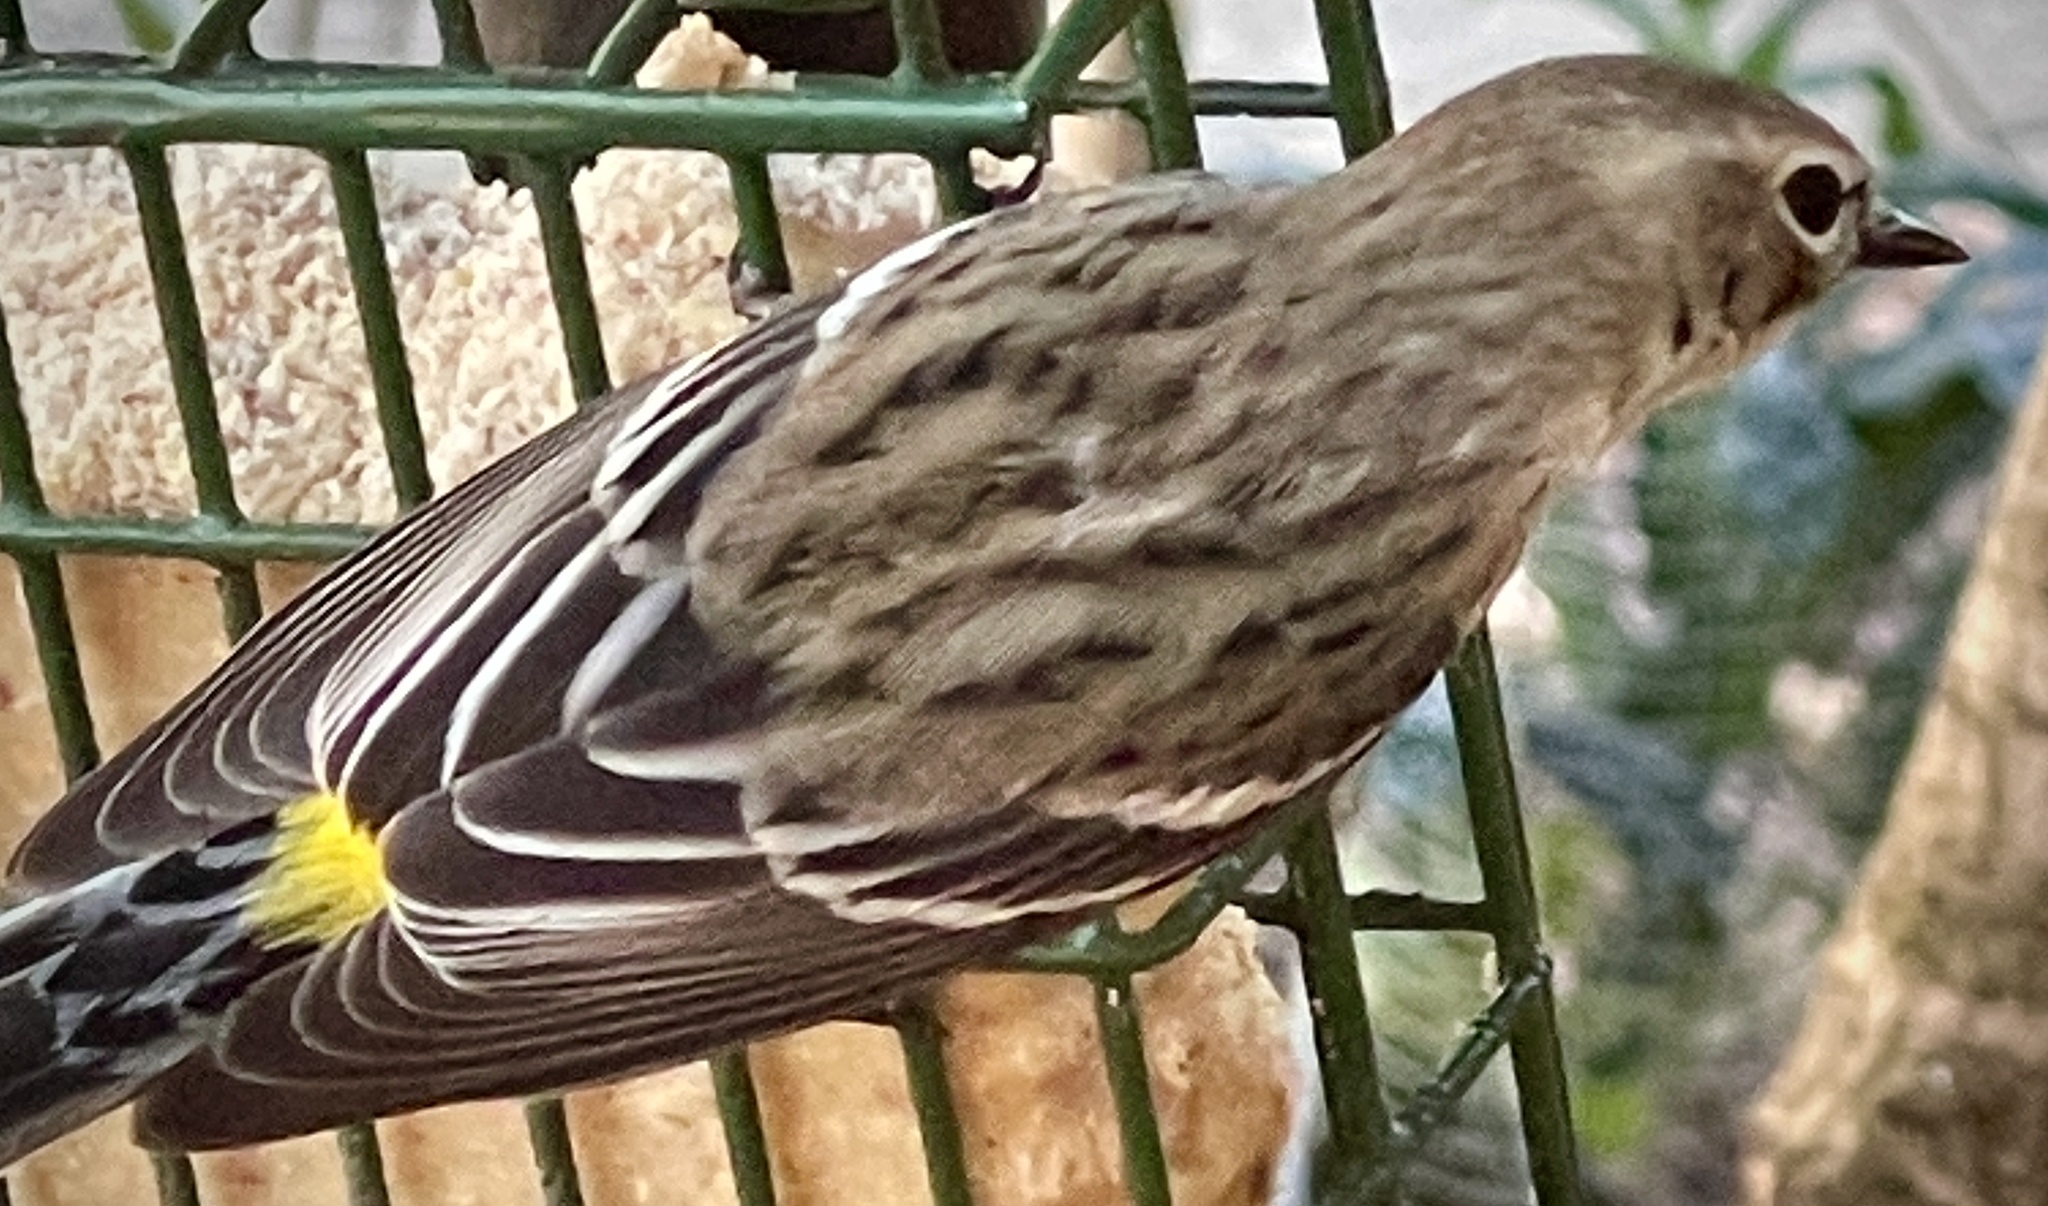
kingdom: Animalia
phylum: Chordata
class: Aves
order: Passeriformes
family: Parulidae
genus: Setophaga
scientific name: Setophaga coronata
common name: Myrtle warbler
